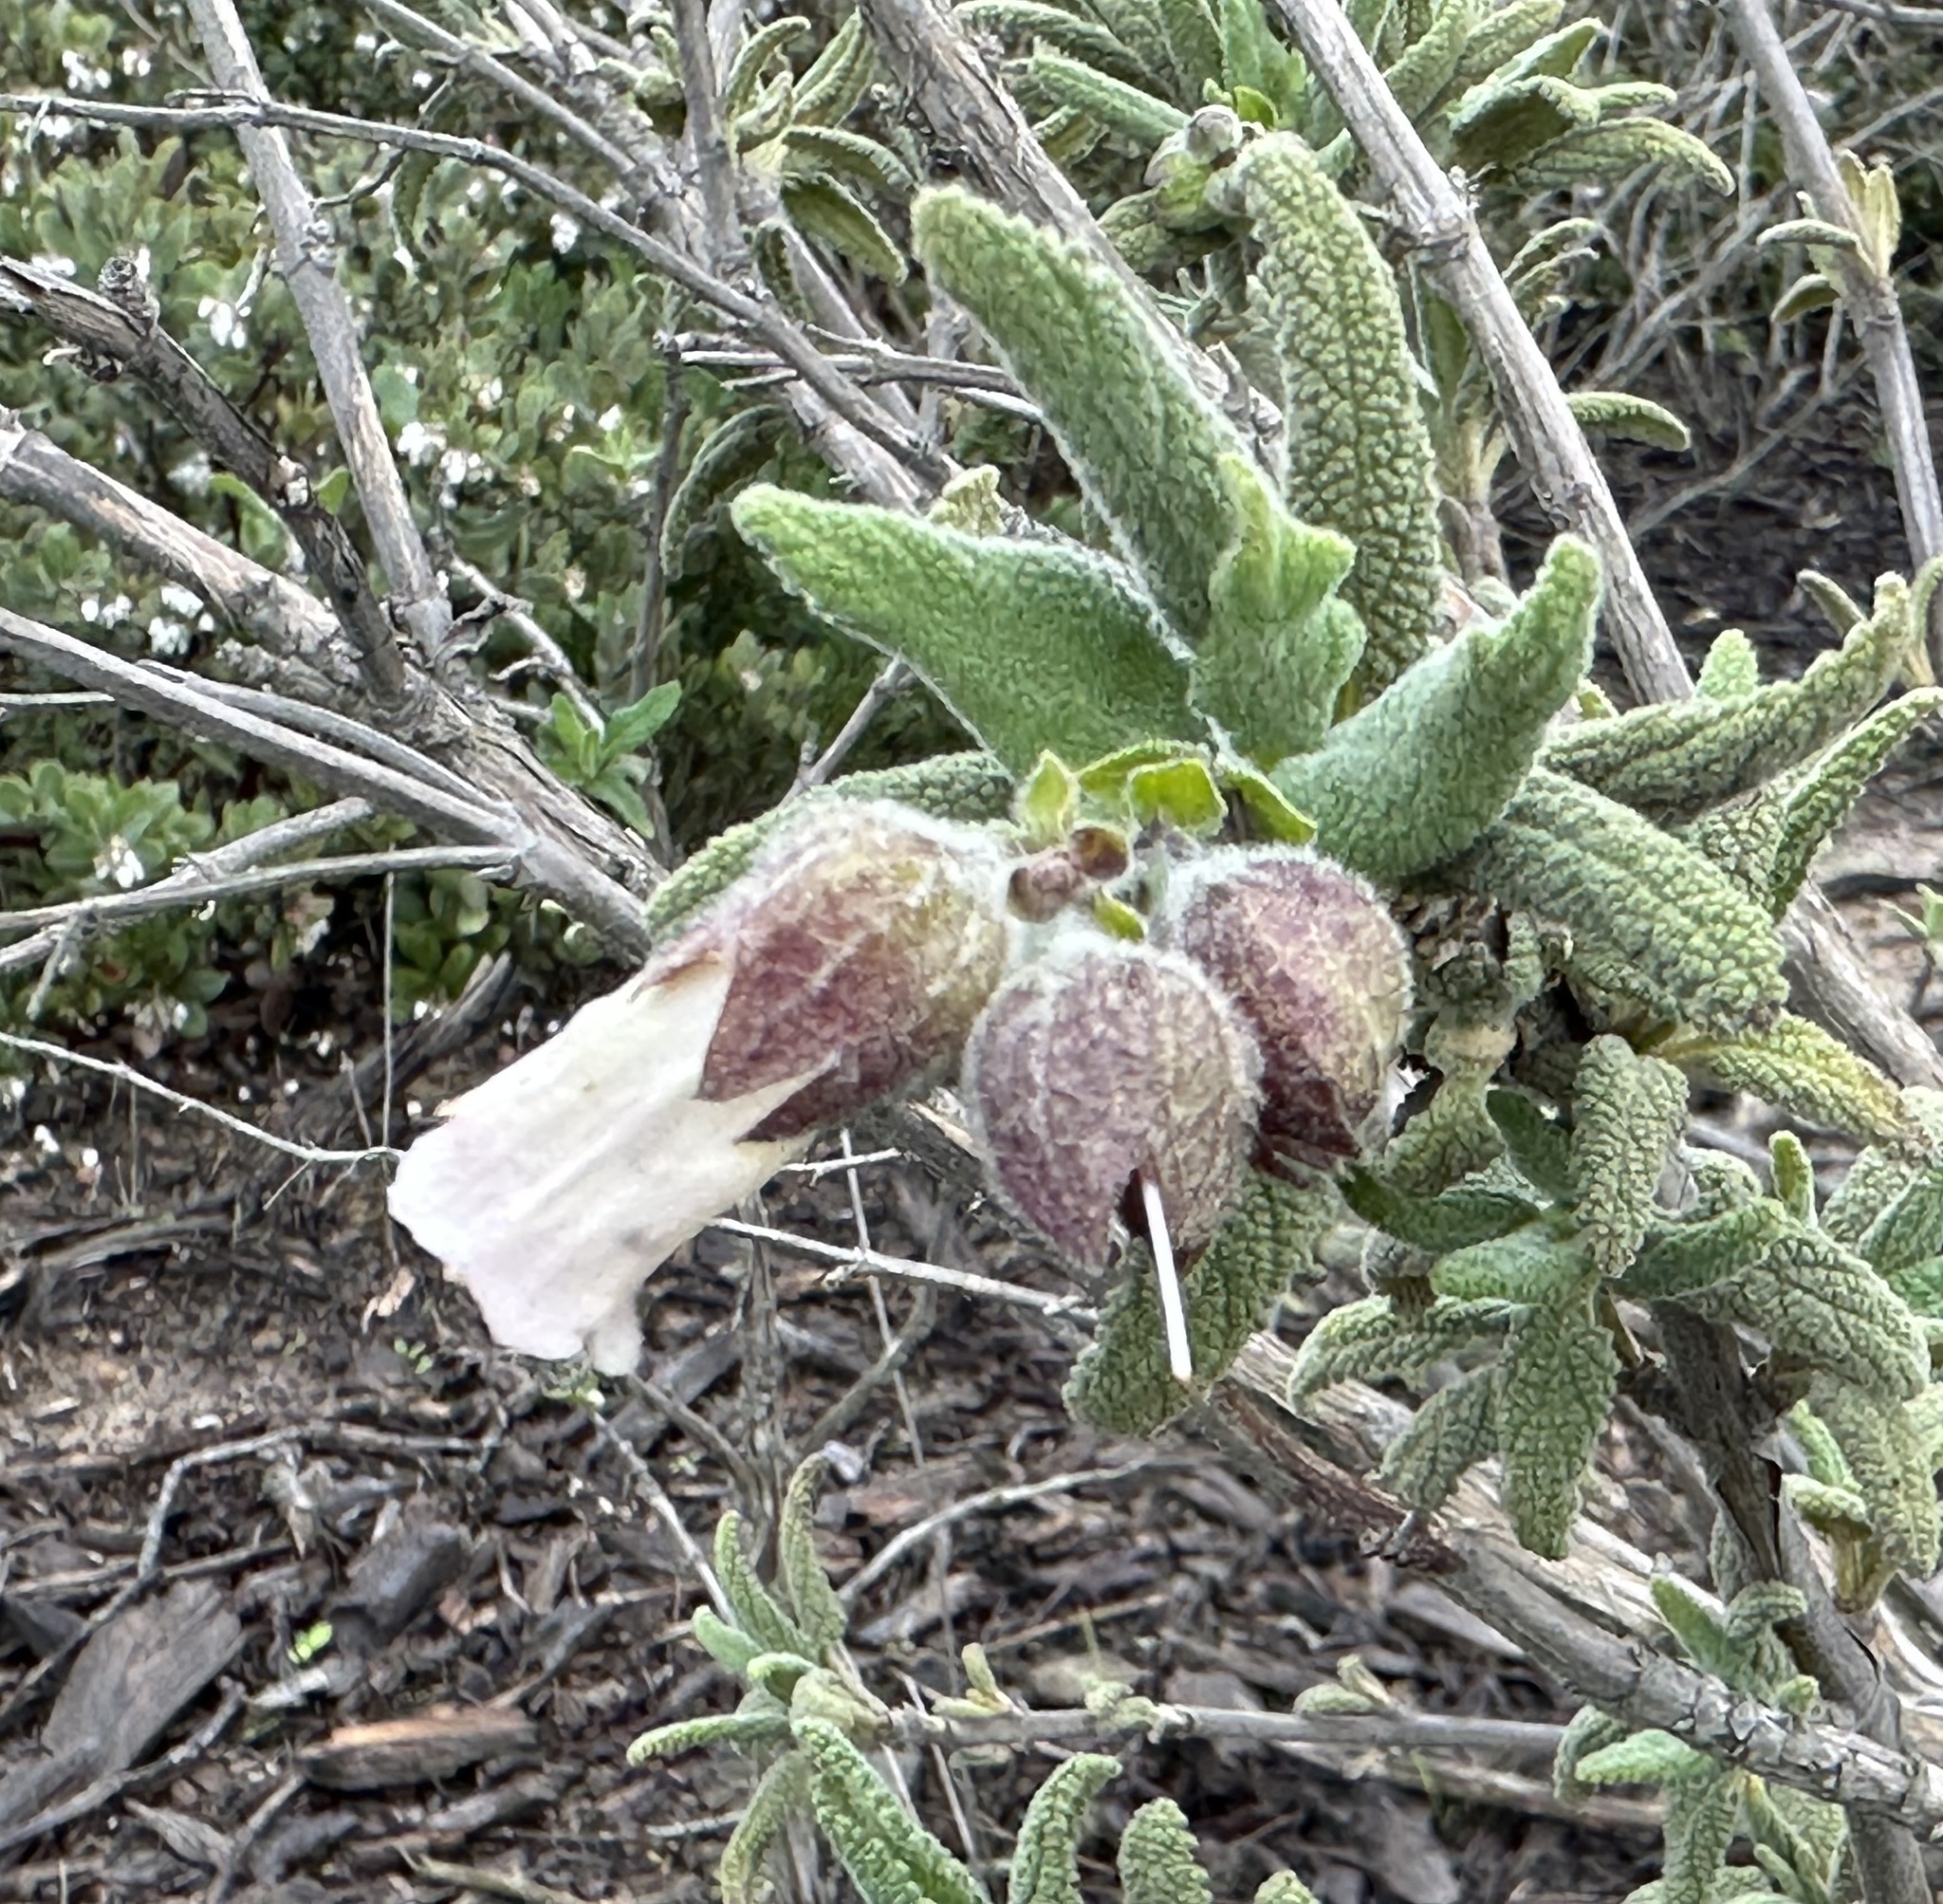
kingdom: Plantae
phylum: Tracheophyta
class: Magnoliopsida
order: Lamiales
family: Lamiaceae
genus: Lepechinia
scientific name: Lepechinia calycina
